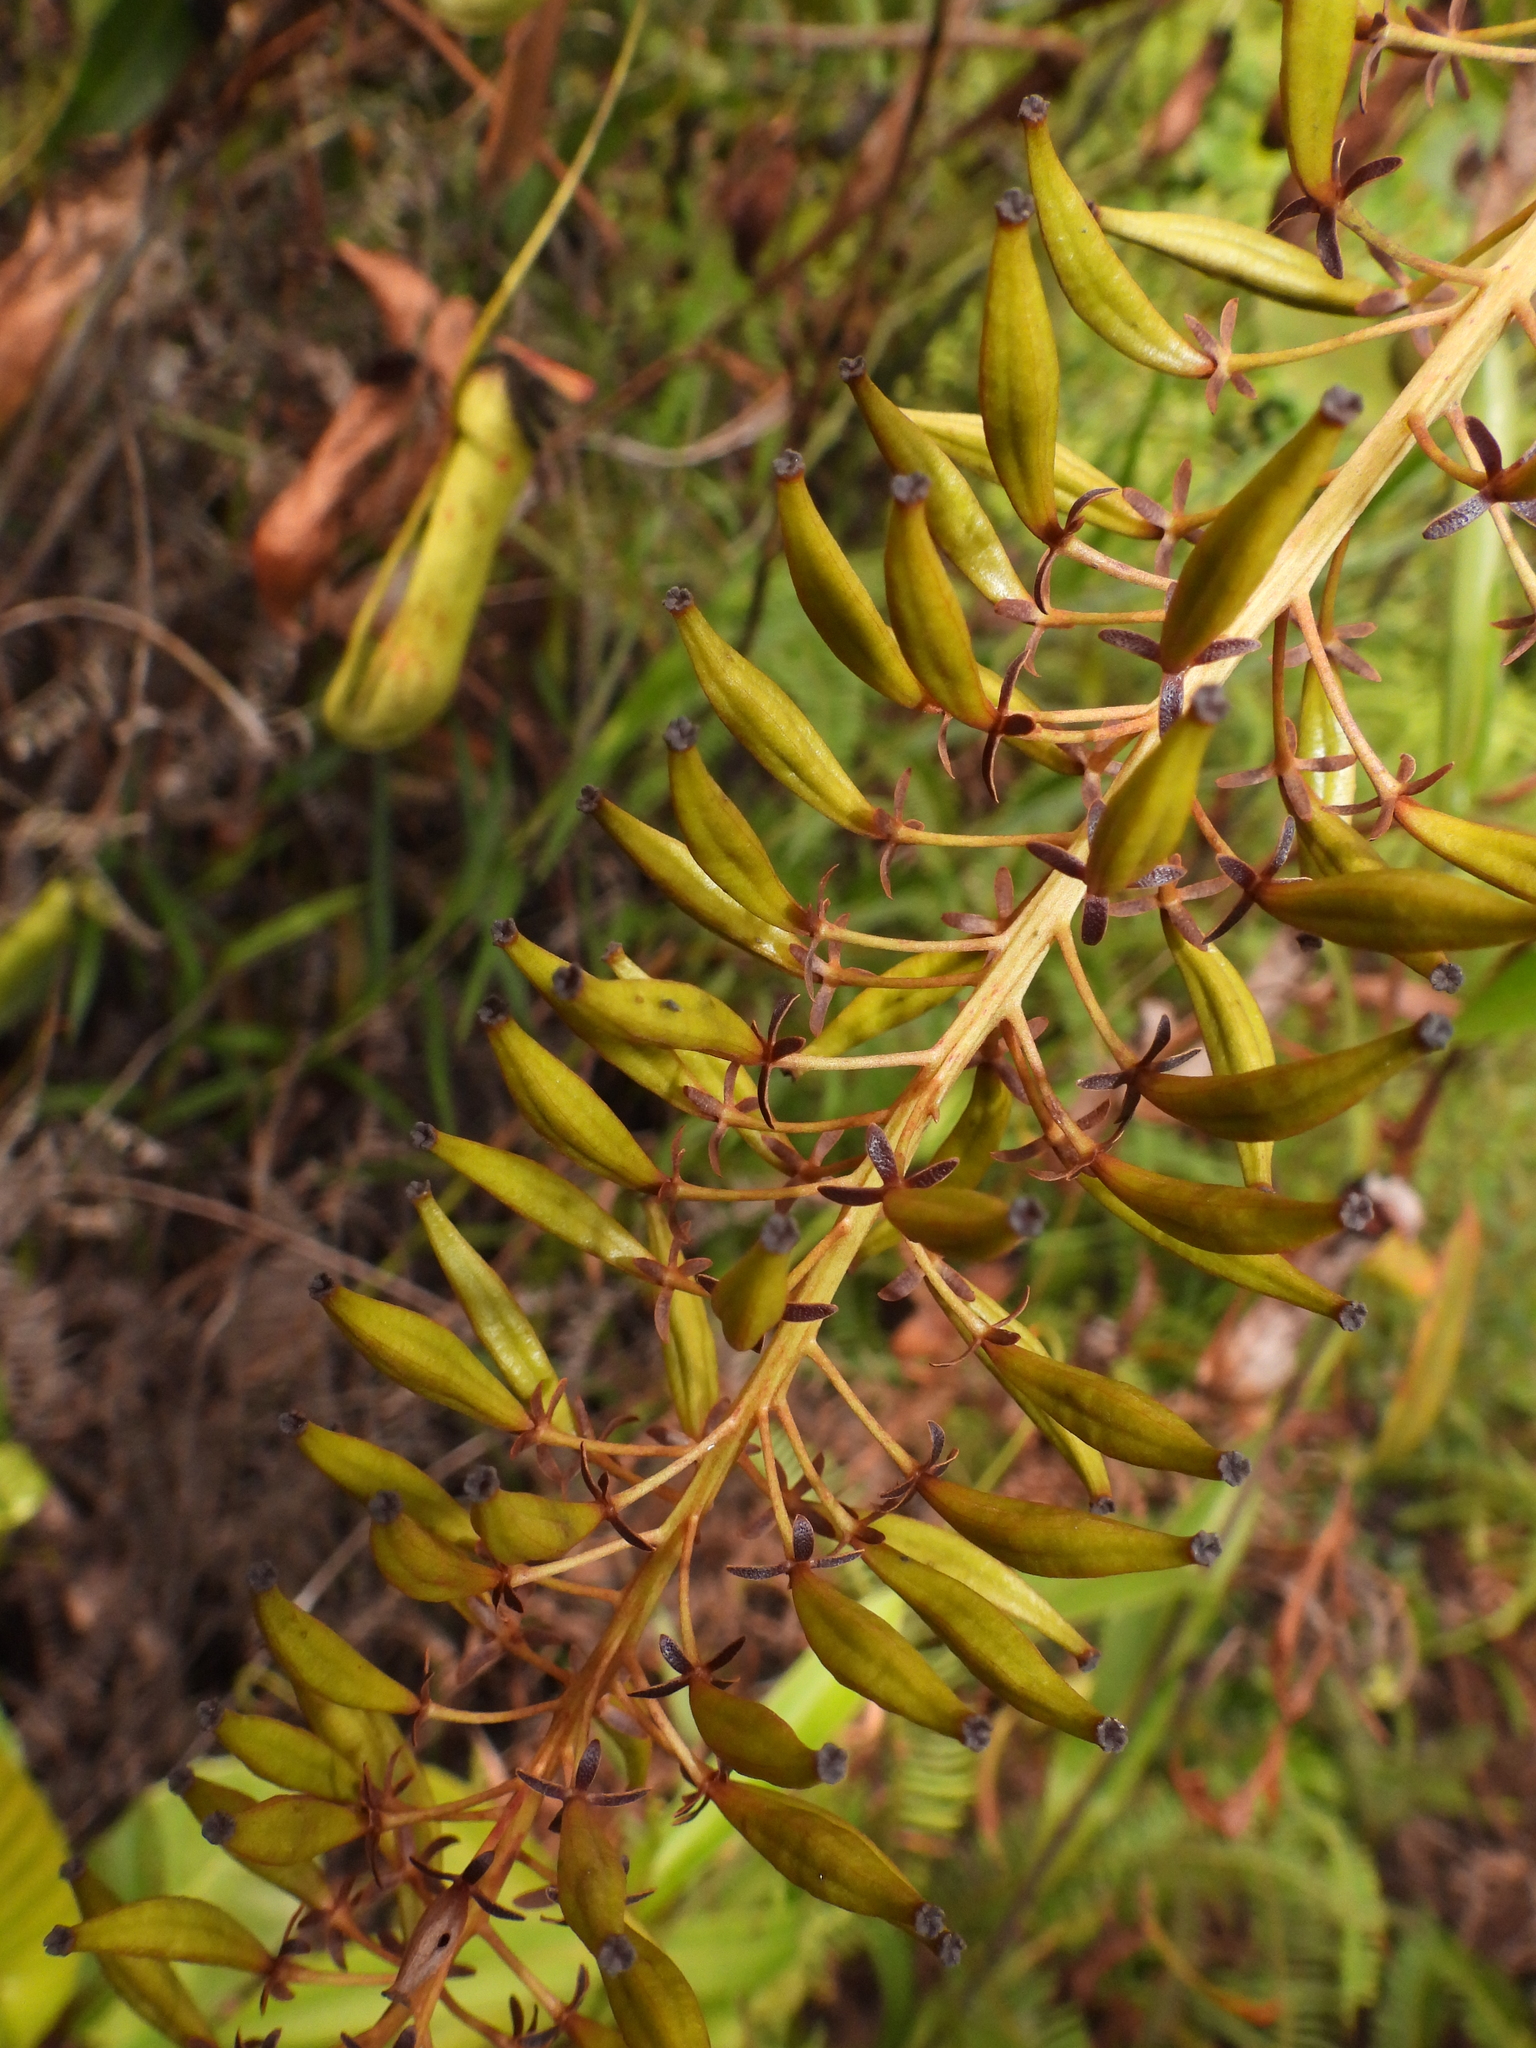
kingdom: Plantae
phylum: Tracheophyta
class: Magnoliopsida
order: Caryophyllales
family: Nepenthaceae
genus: Nepenthes
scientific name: Nepenthes gracilis
